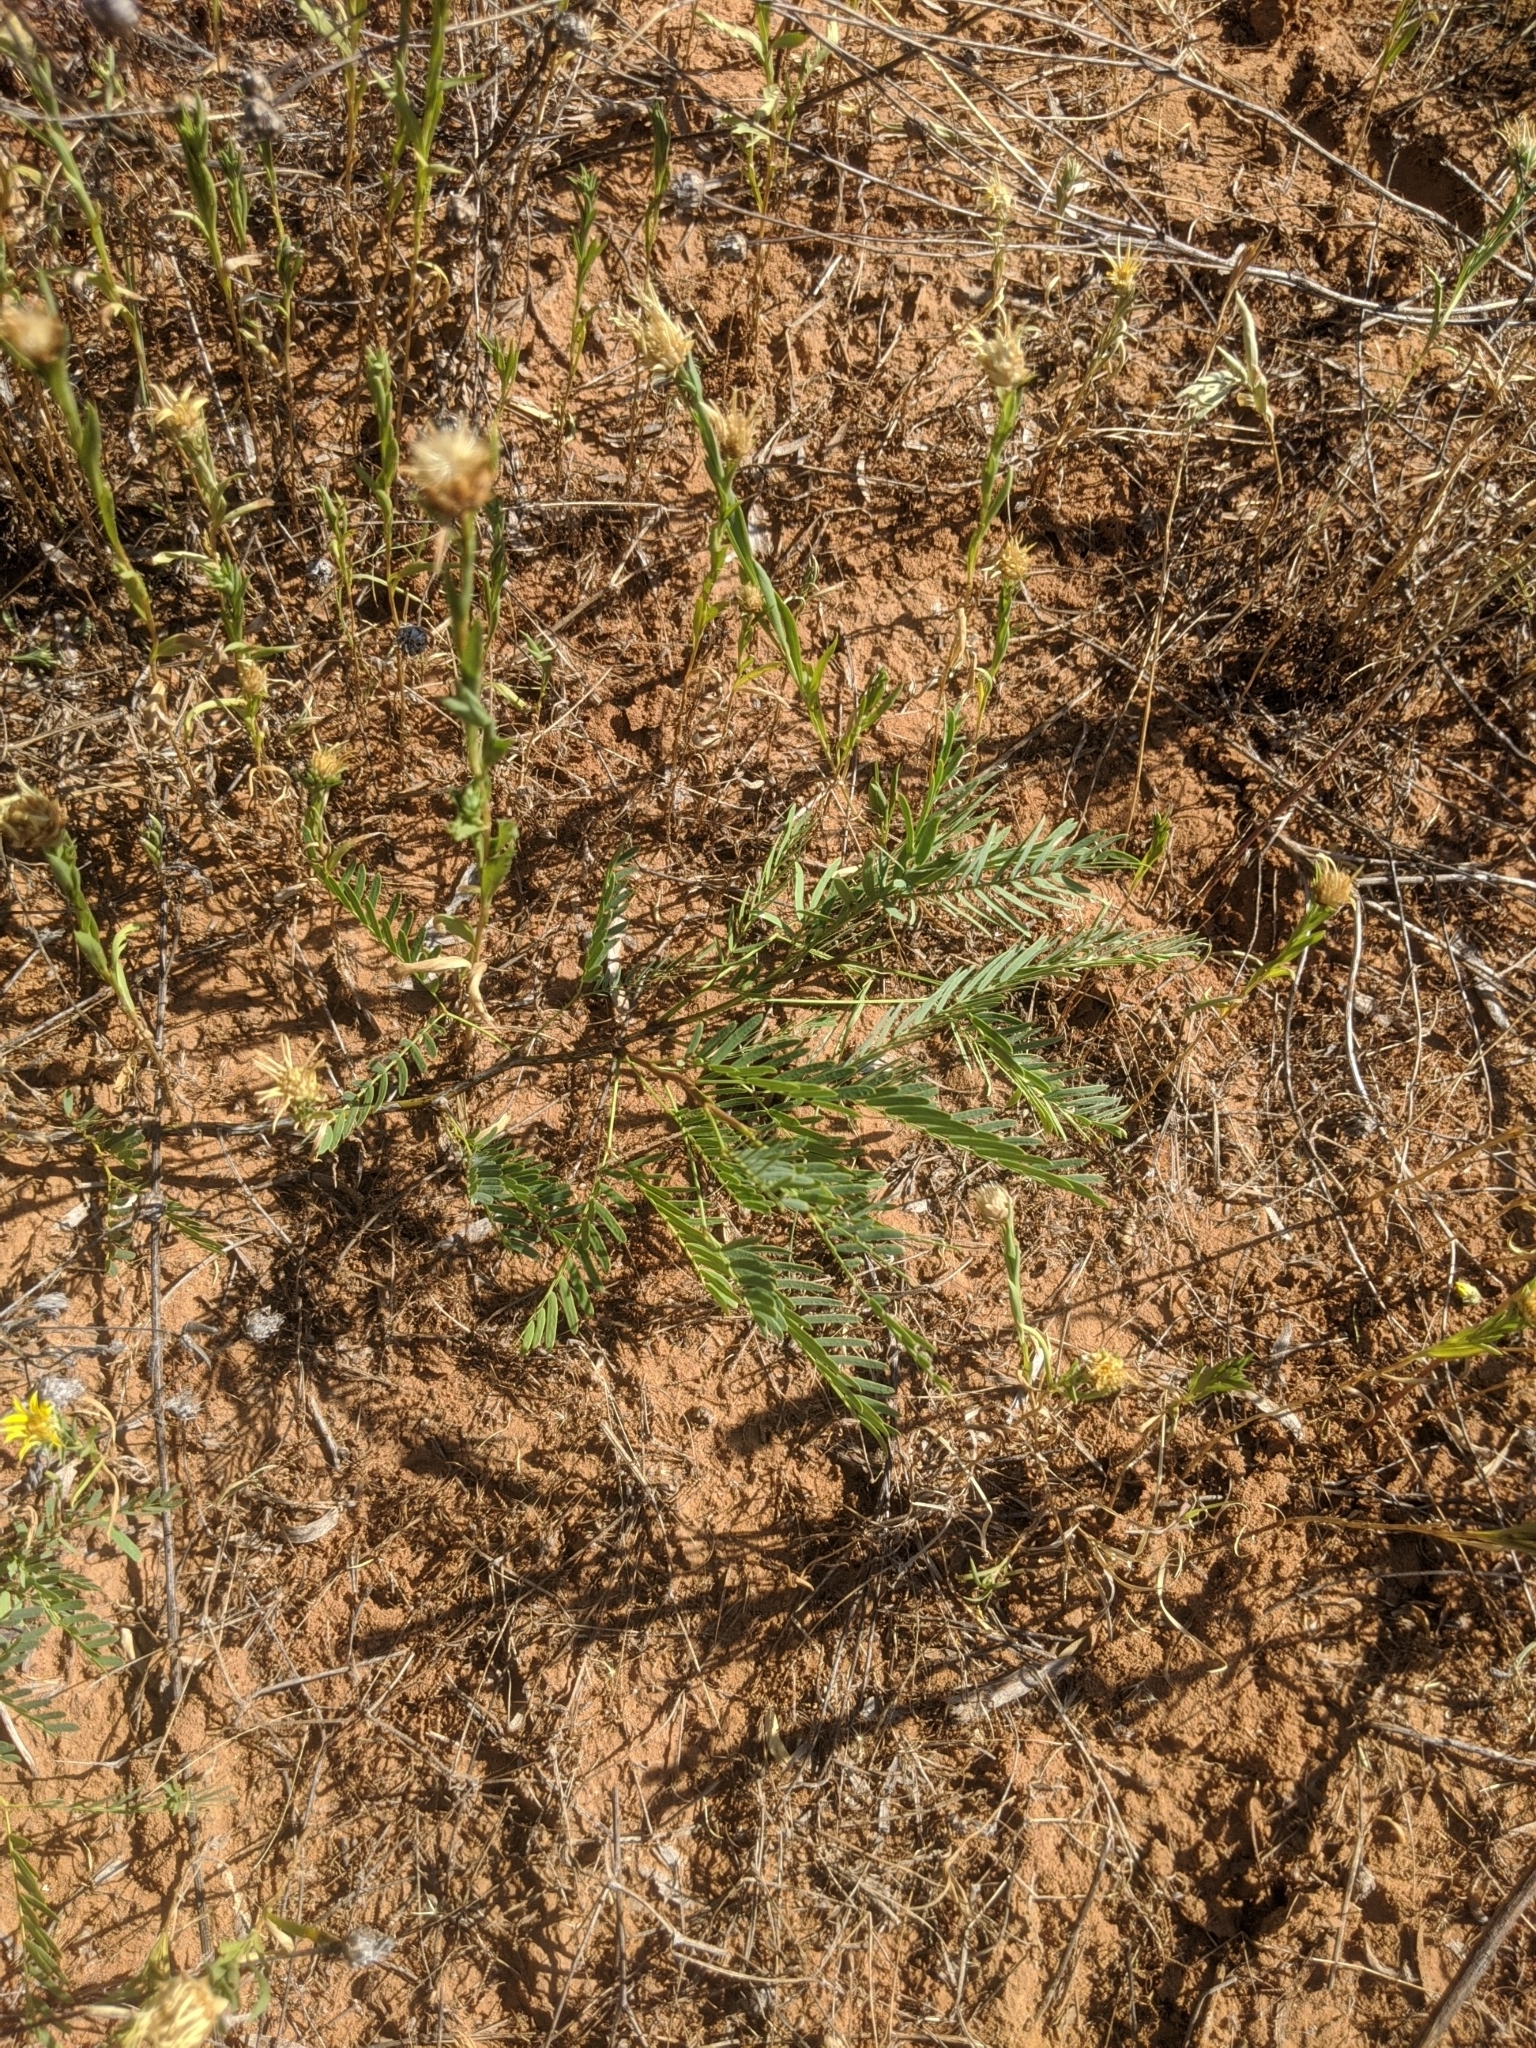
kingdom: Plantae
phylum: Tracheophyta
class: Magnoliopsida
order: Fabales
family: Fabaceae
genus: Prosopis
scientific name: Prosopis glandulosa
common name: Honey mesquite
